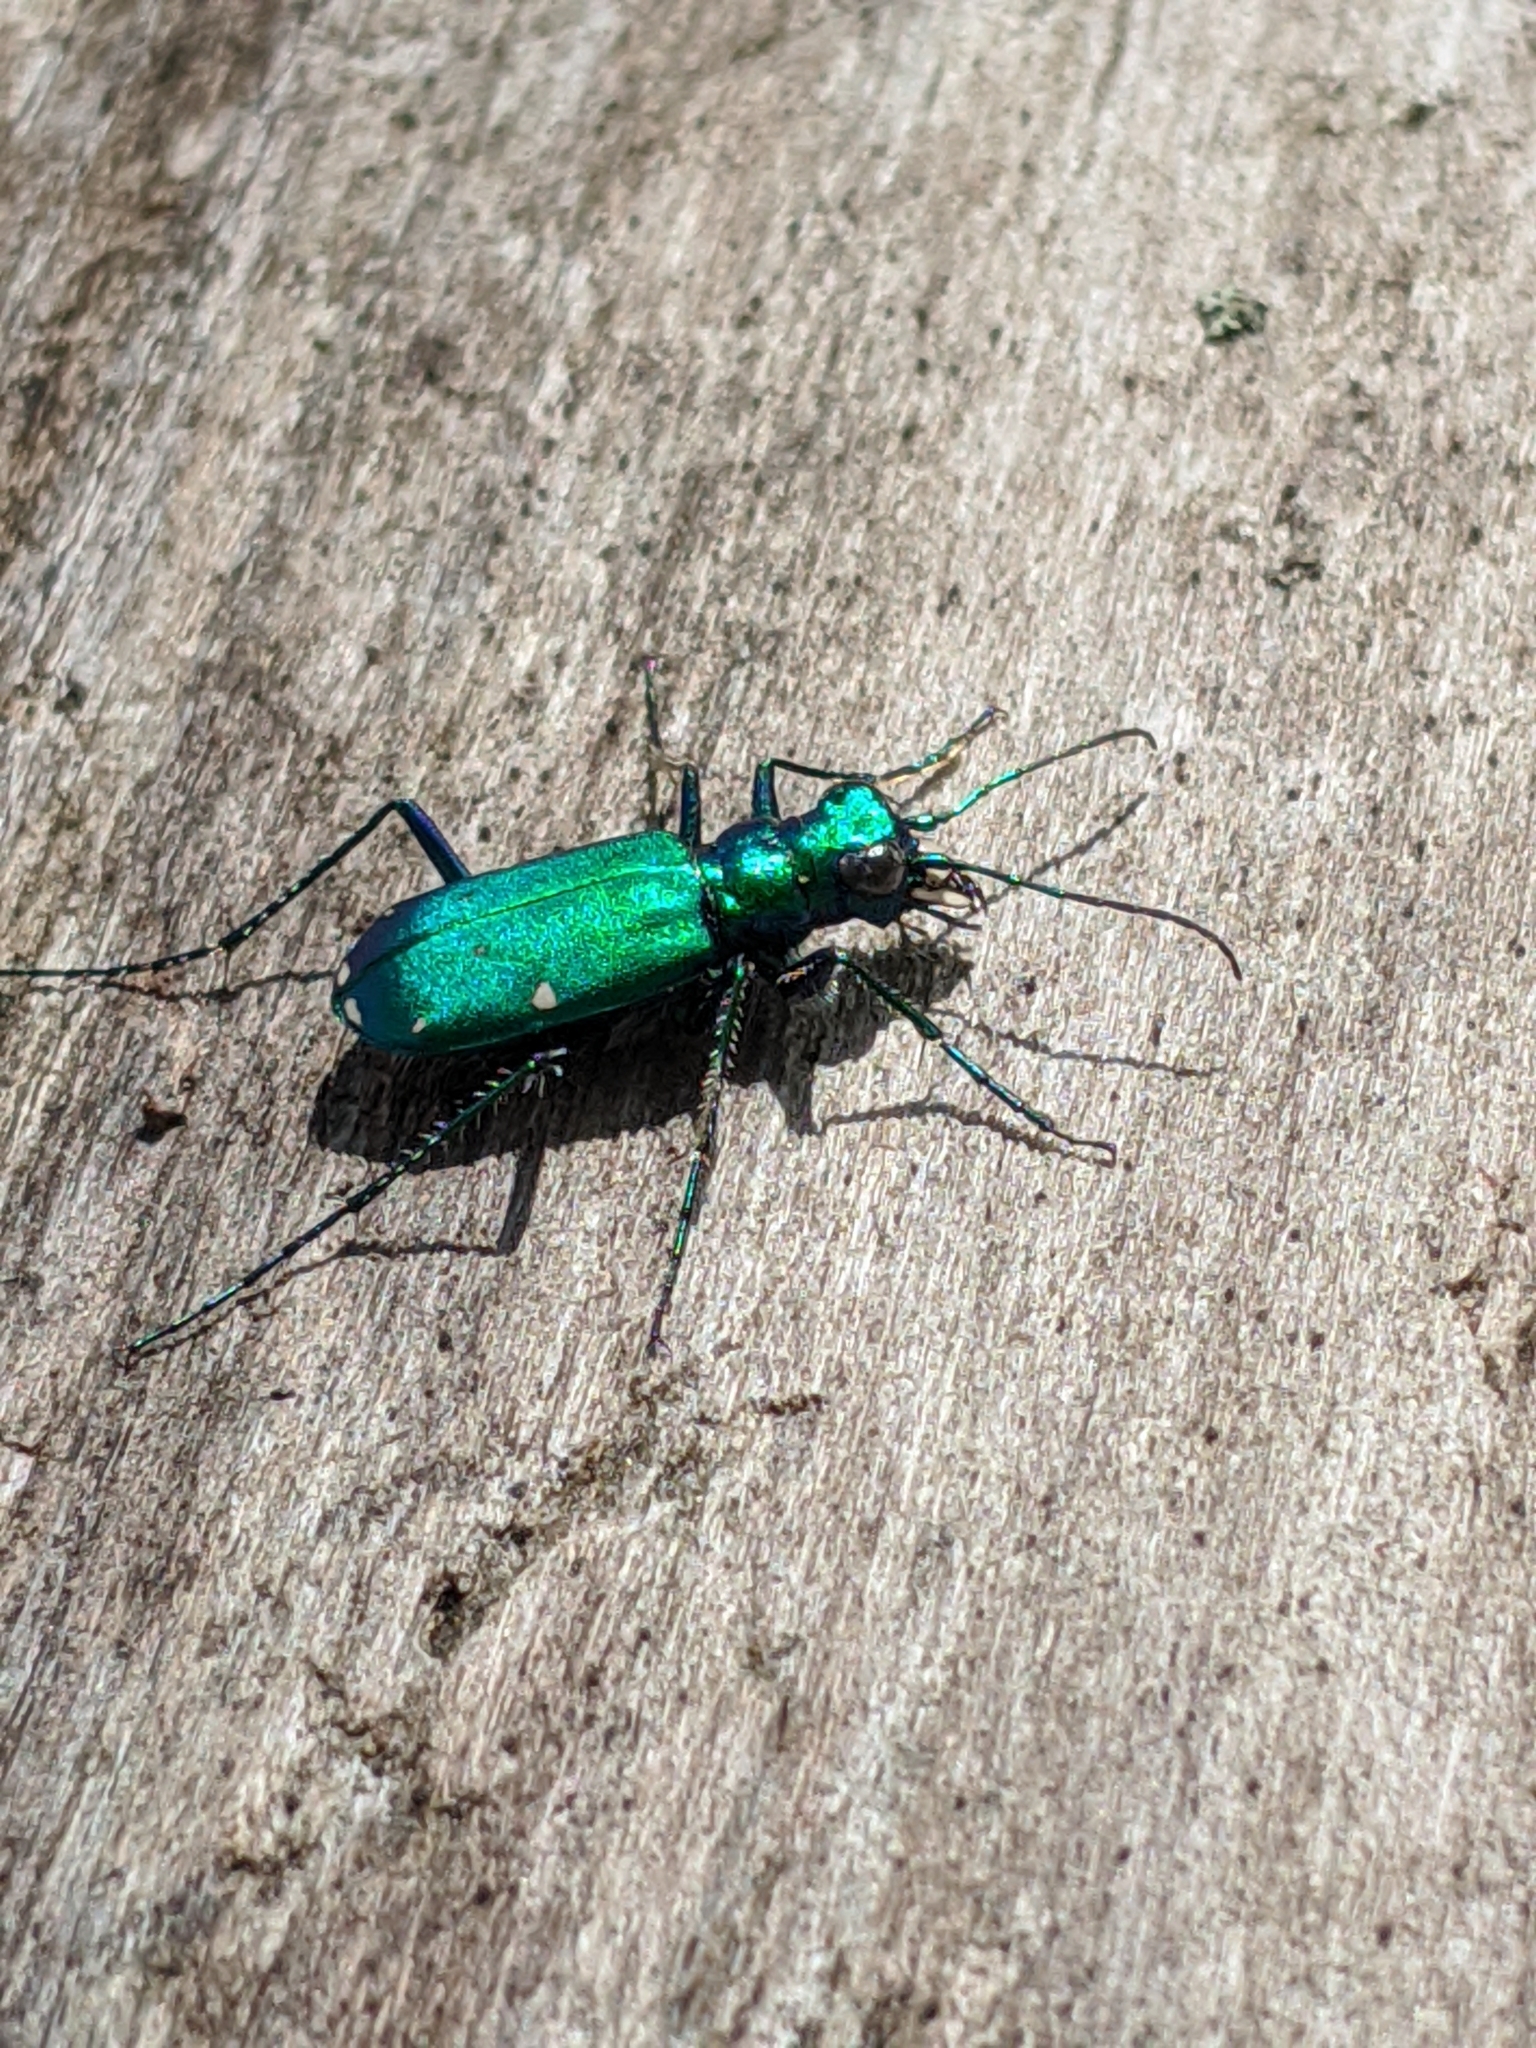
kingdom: Animalia
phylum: Arthropoda
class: Insecta
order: Coleoptera
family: Carabidae
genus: Cicindela
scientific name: Cicindela sexguttata
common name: Six-spotted tiger beetle
